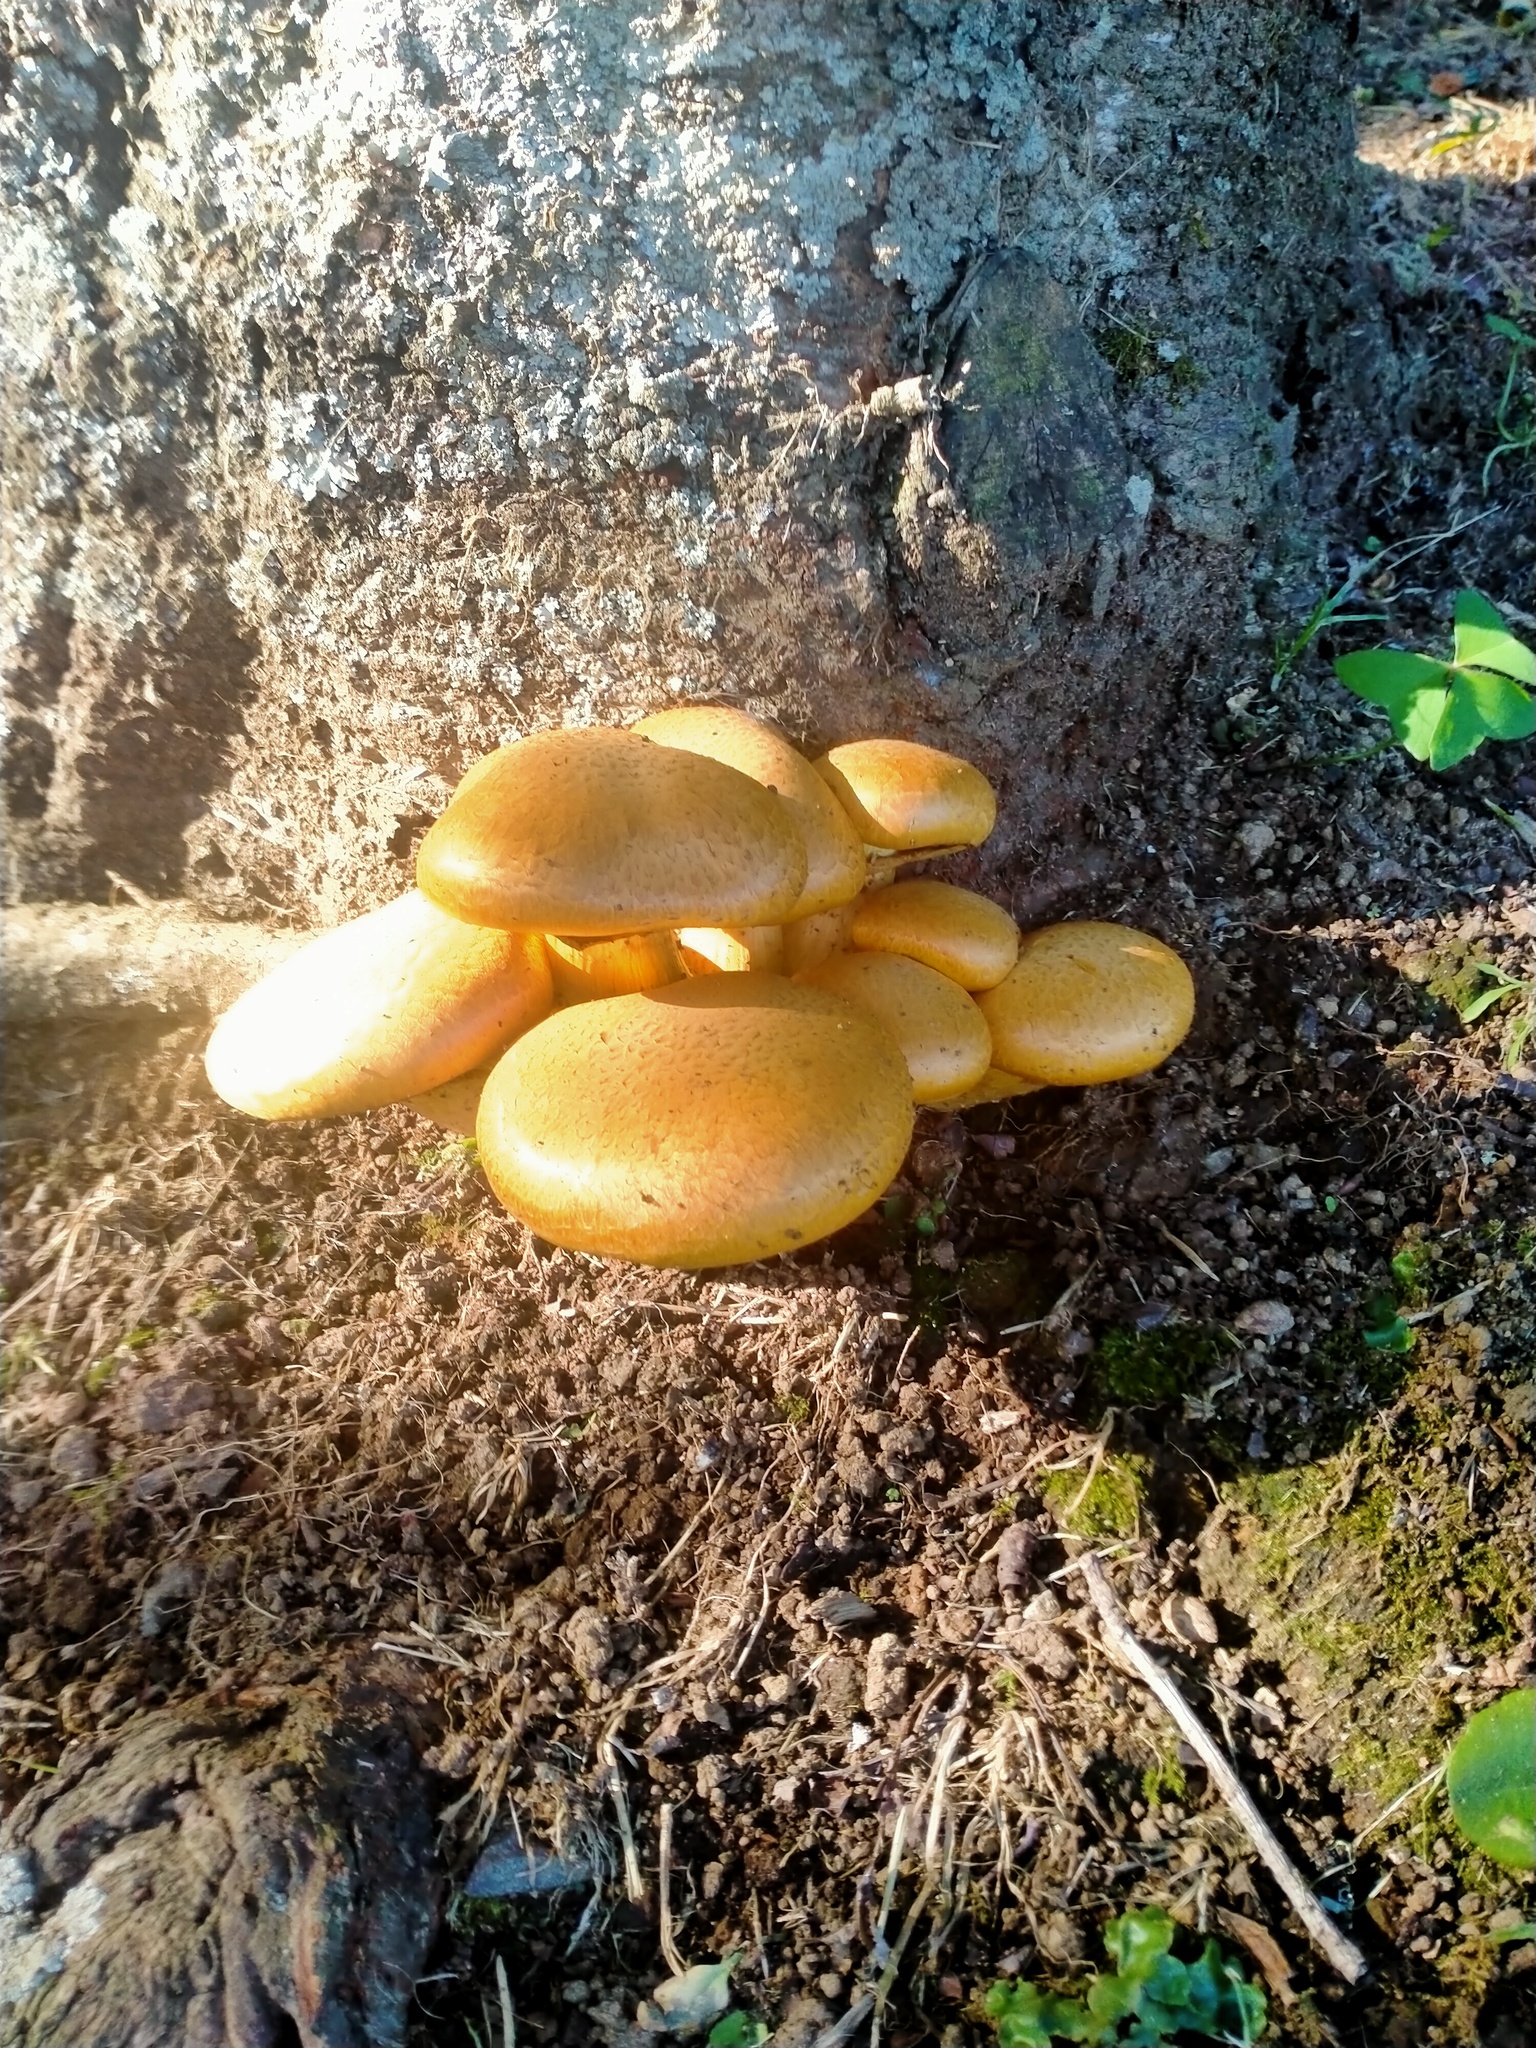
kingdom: Fungi
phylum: Basidiomycota
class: Agaricomycetes
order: Agaricales
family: Hymenogastraceae
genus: Gymnopilus
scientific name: Gymnopilus junonius
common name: Spectacular rustgill
